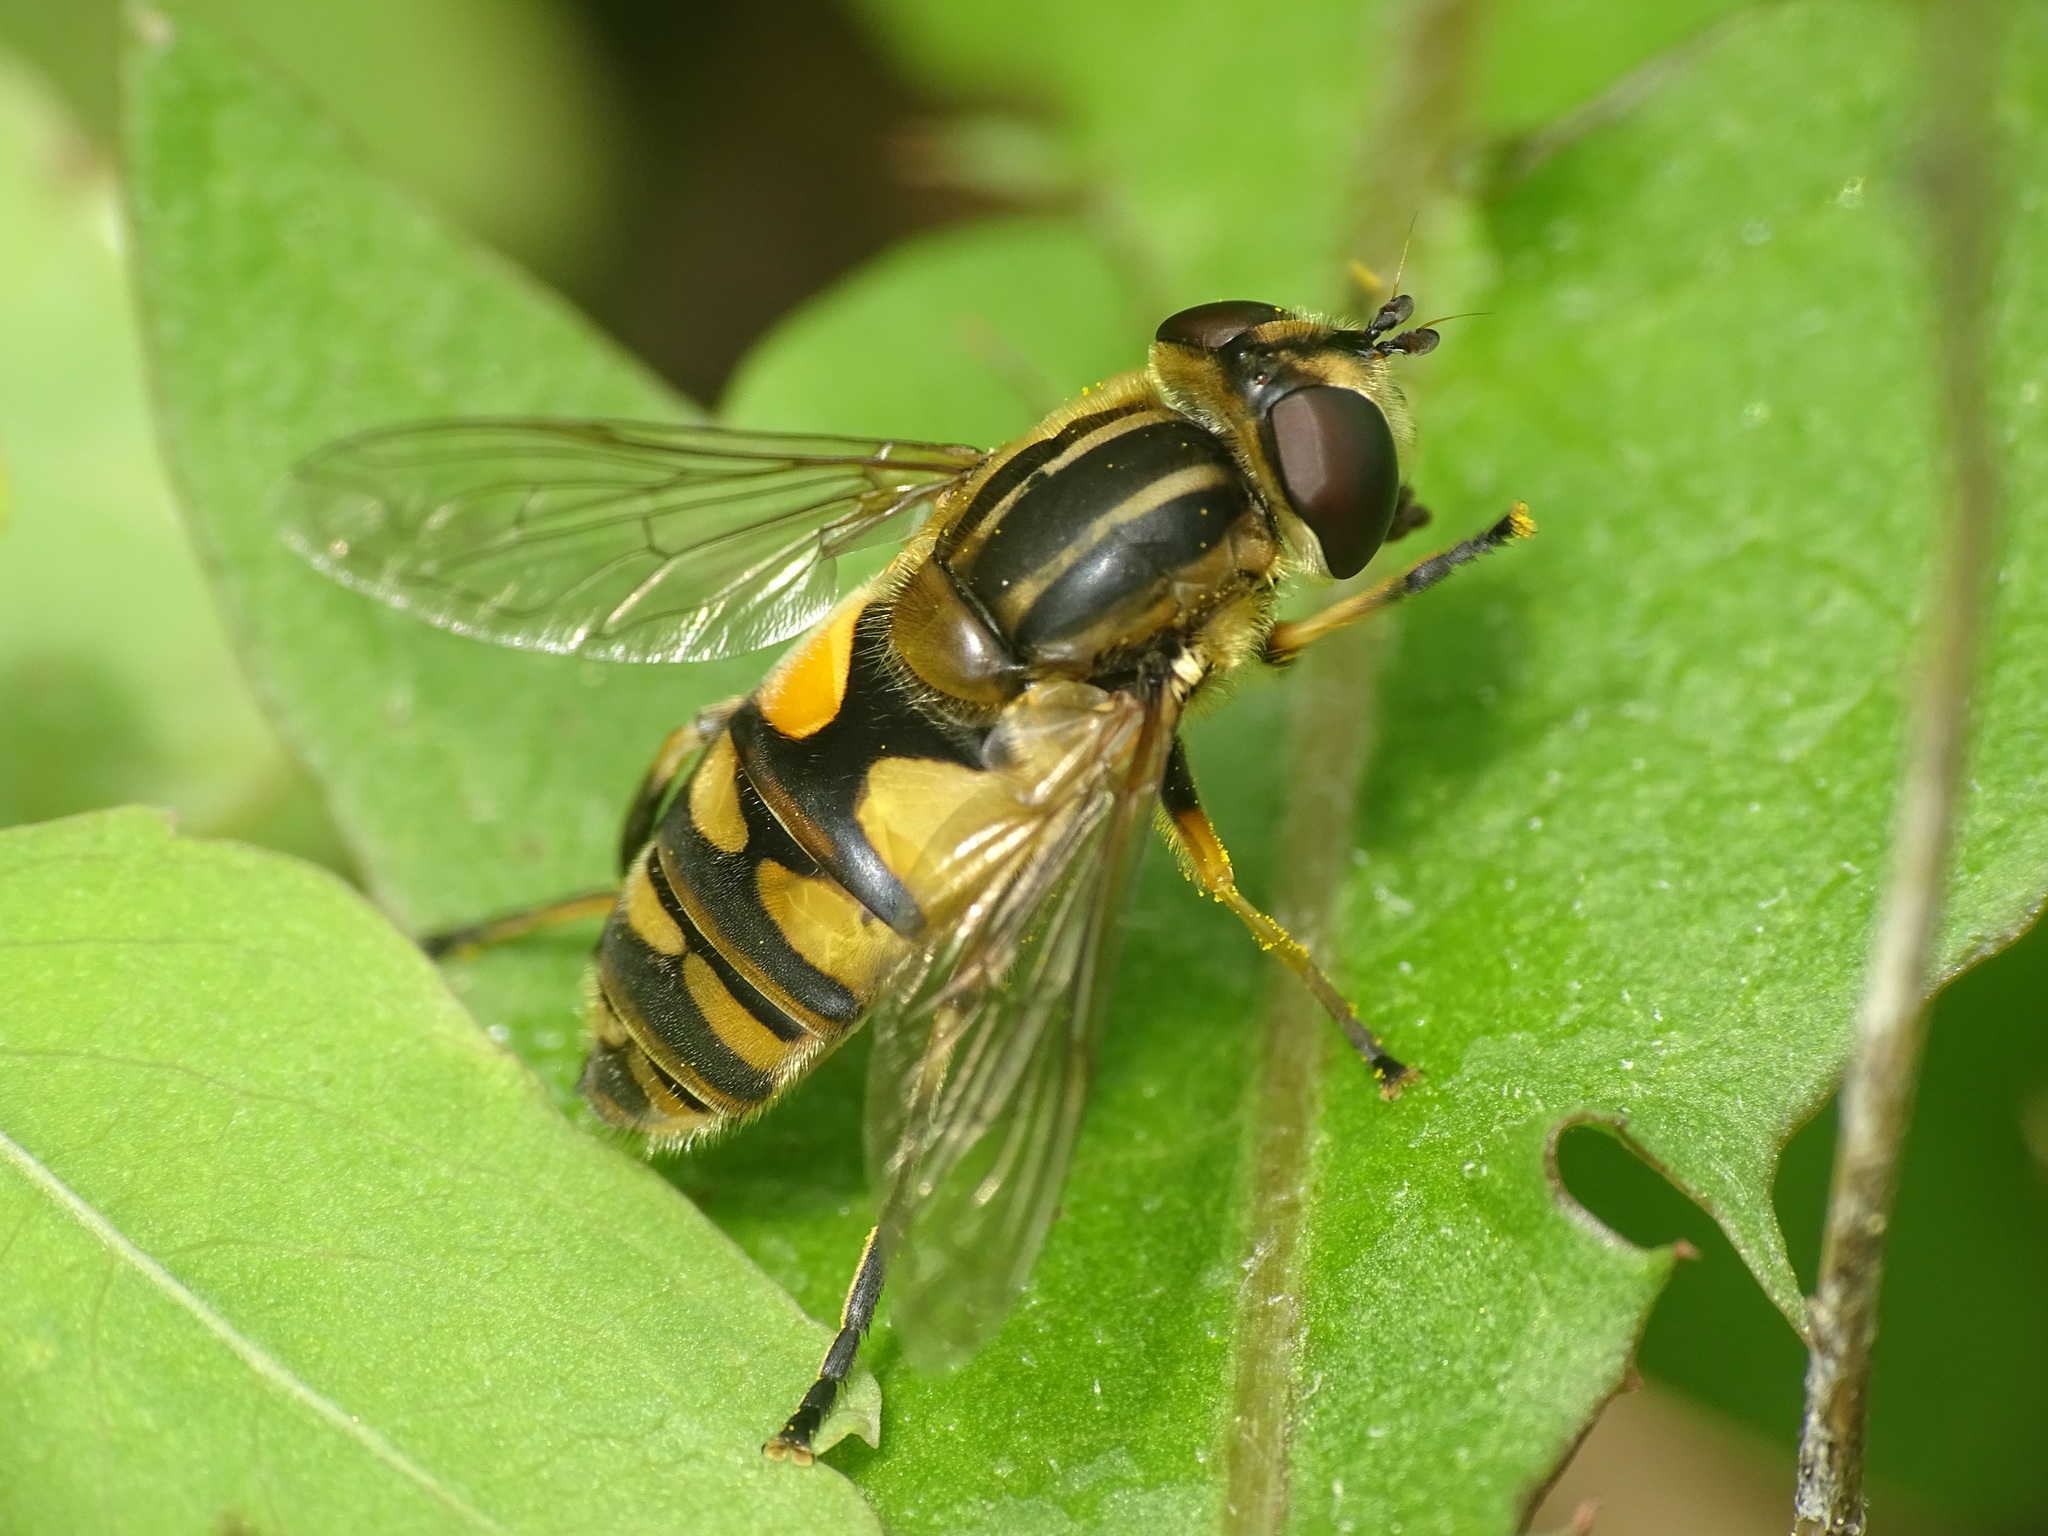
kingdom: Animalia
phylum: Arthropoda
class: Insecta
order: Diptera
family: Syrphidae
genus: Helophilus
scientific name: Helophilus hybridus
